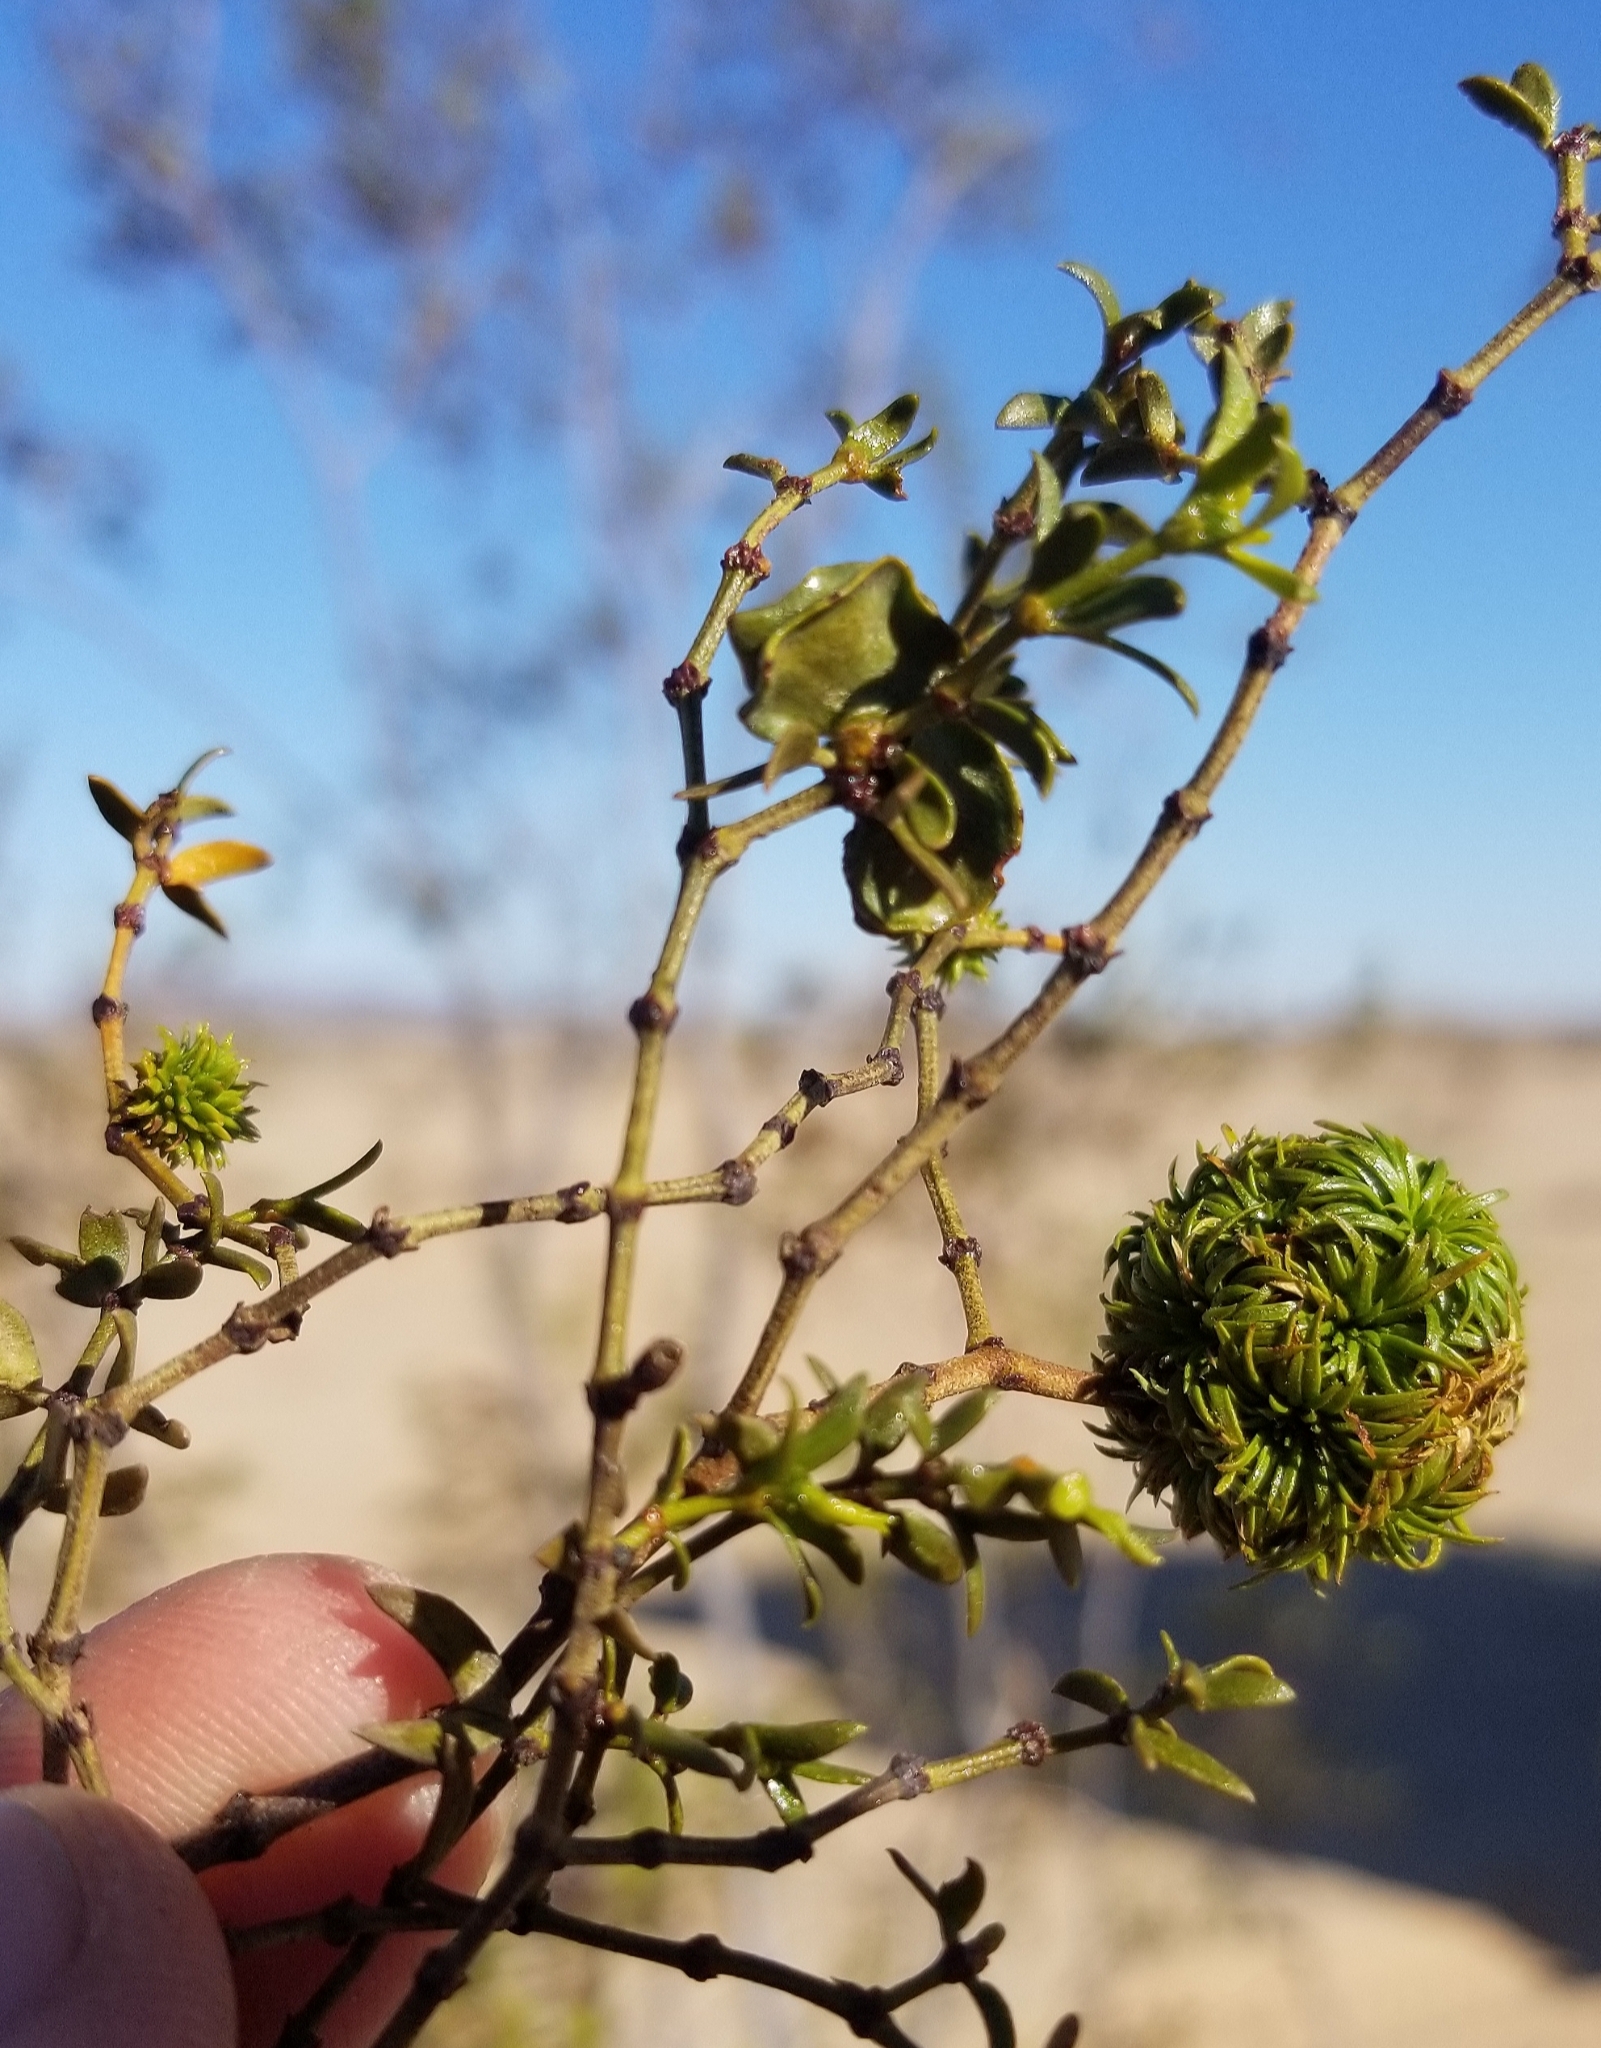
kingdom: Animalia
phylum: Arthropoda
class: Insecta
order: Diptera
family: Cecidomyiidae
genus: Asphondylia
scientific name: Asphondylia foliosa
